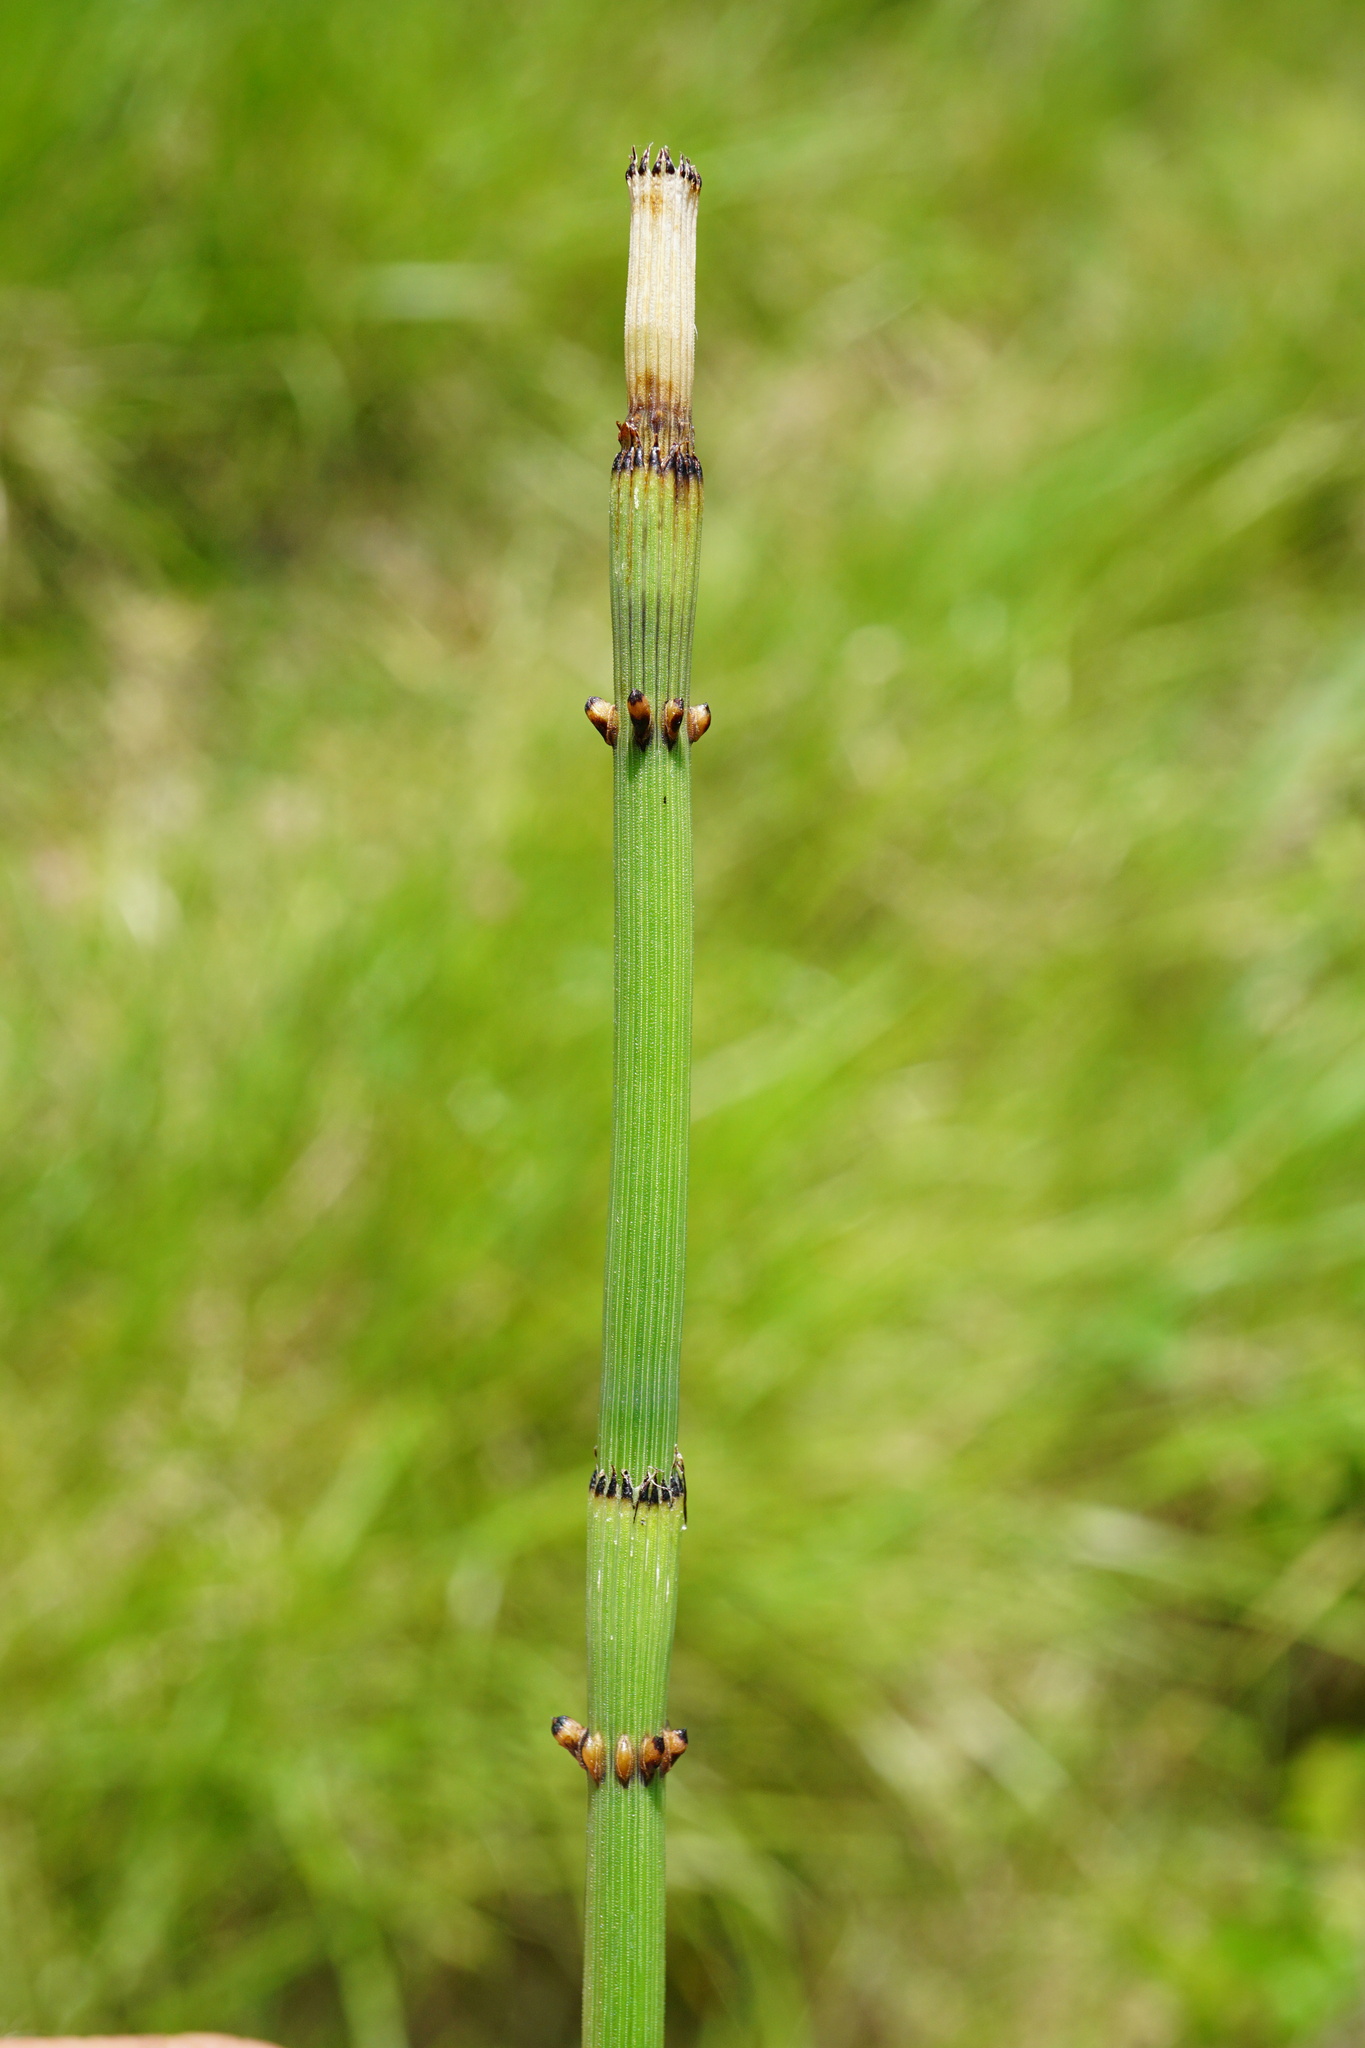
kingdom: Plantae
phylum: Tracheophyta
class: Polypodiopsida
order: Equisetales
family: Equisetaceae
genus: Equisetum
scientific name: Equisetum ramosissimum
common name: Branched horsetail
